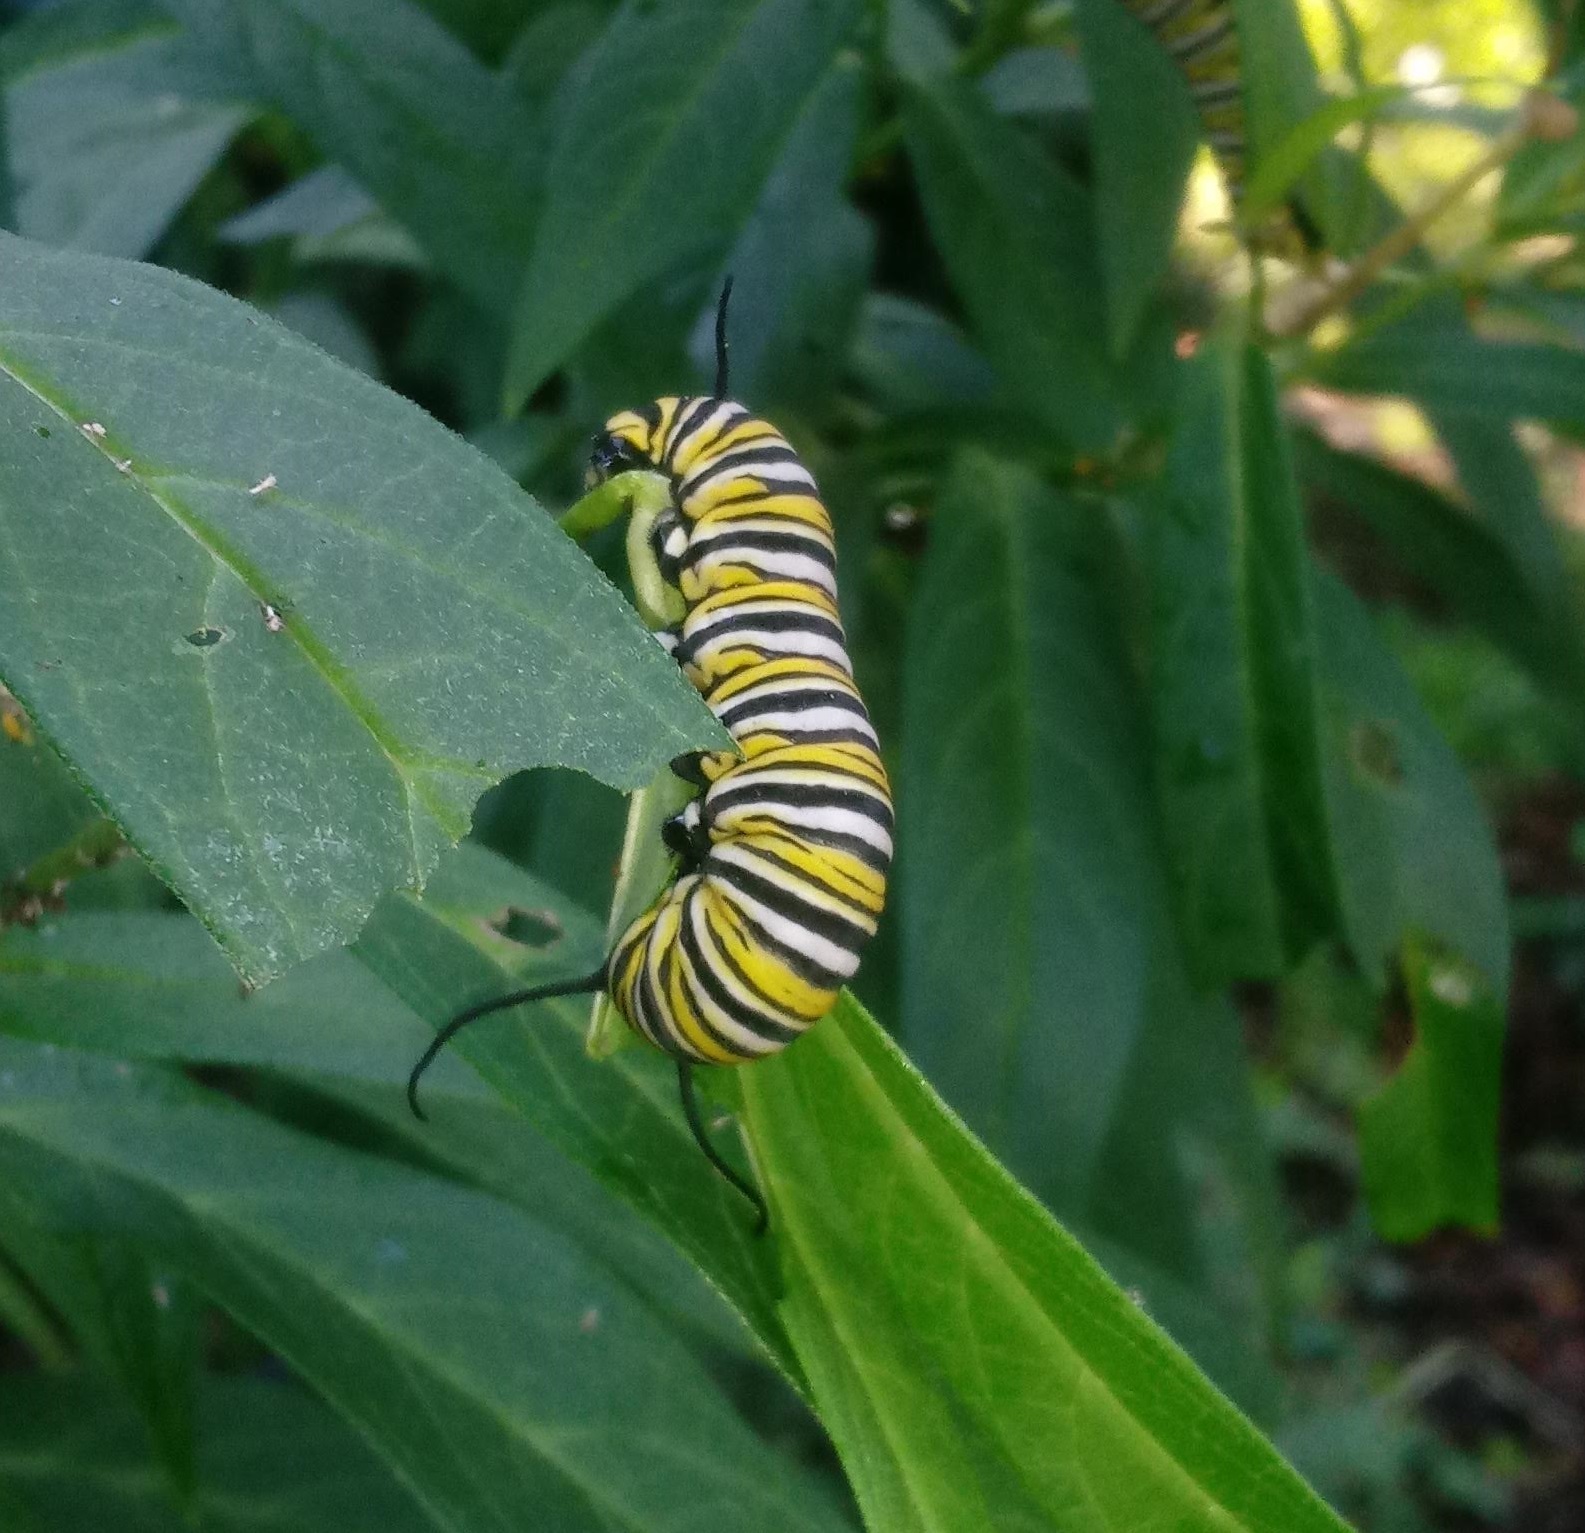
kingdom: Animalia
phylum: Arthropoda
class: Insecta
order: Lepidoptera
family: Nymphalidae
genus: Danaus
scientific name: Danaus plexippus
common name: Monarch
